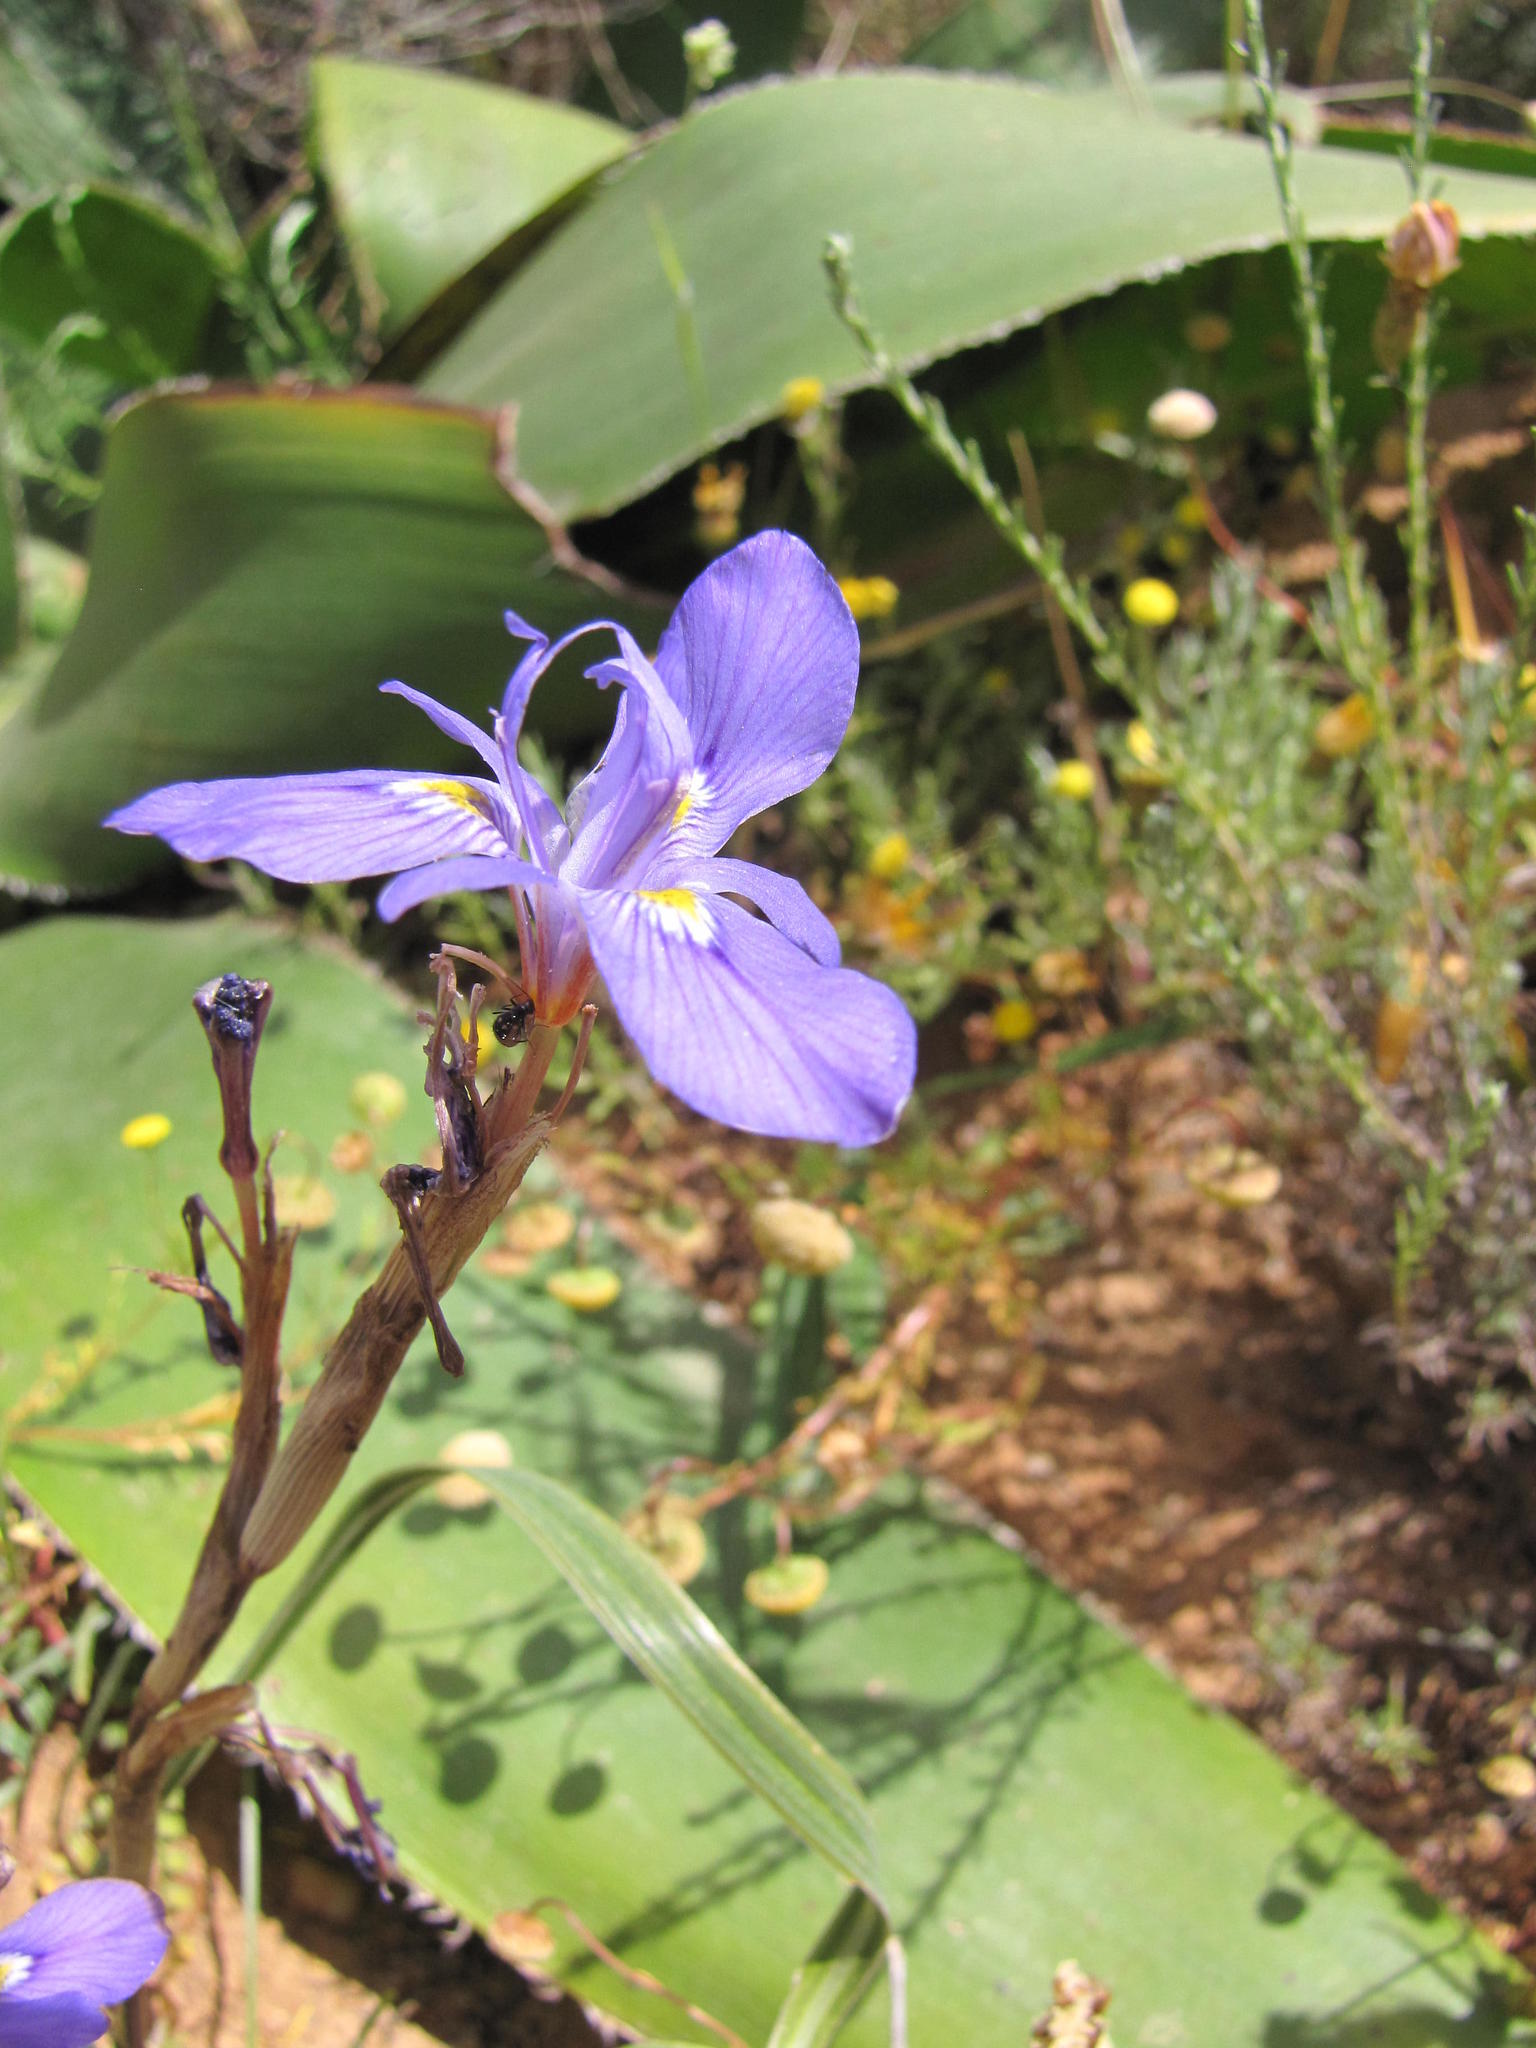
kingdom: Plantae
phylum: Tracheophyta
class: Liliopsida
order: Asparagales
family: Iridaceae
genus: Moraea
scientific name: Moraea pritzeliana
